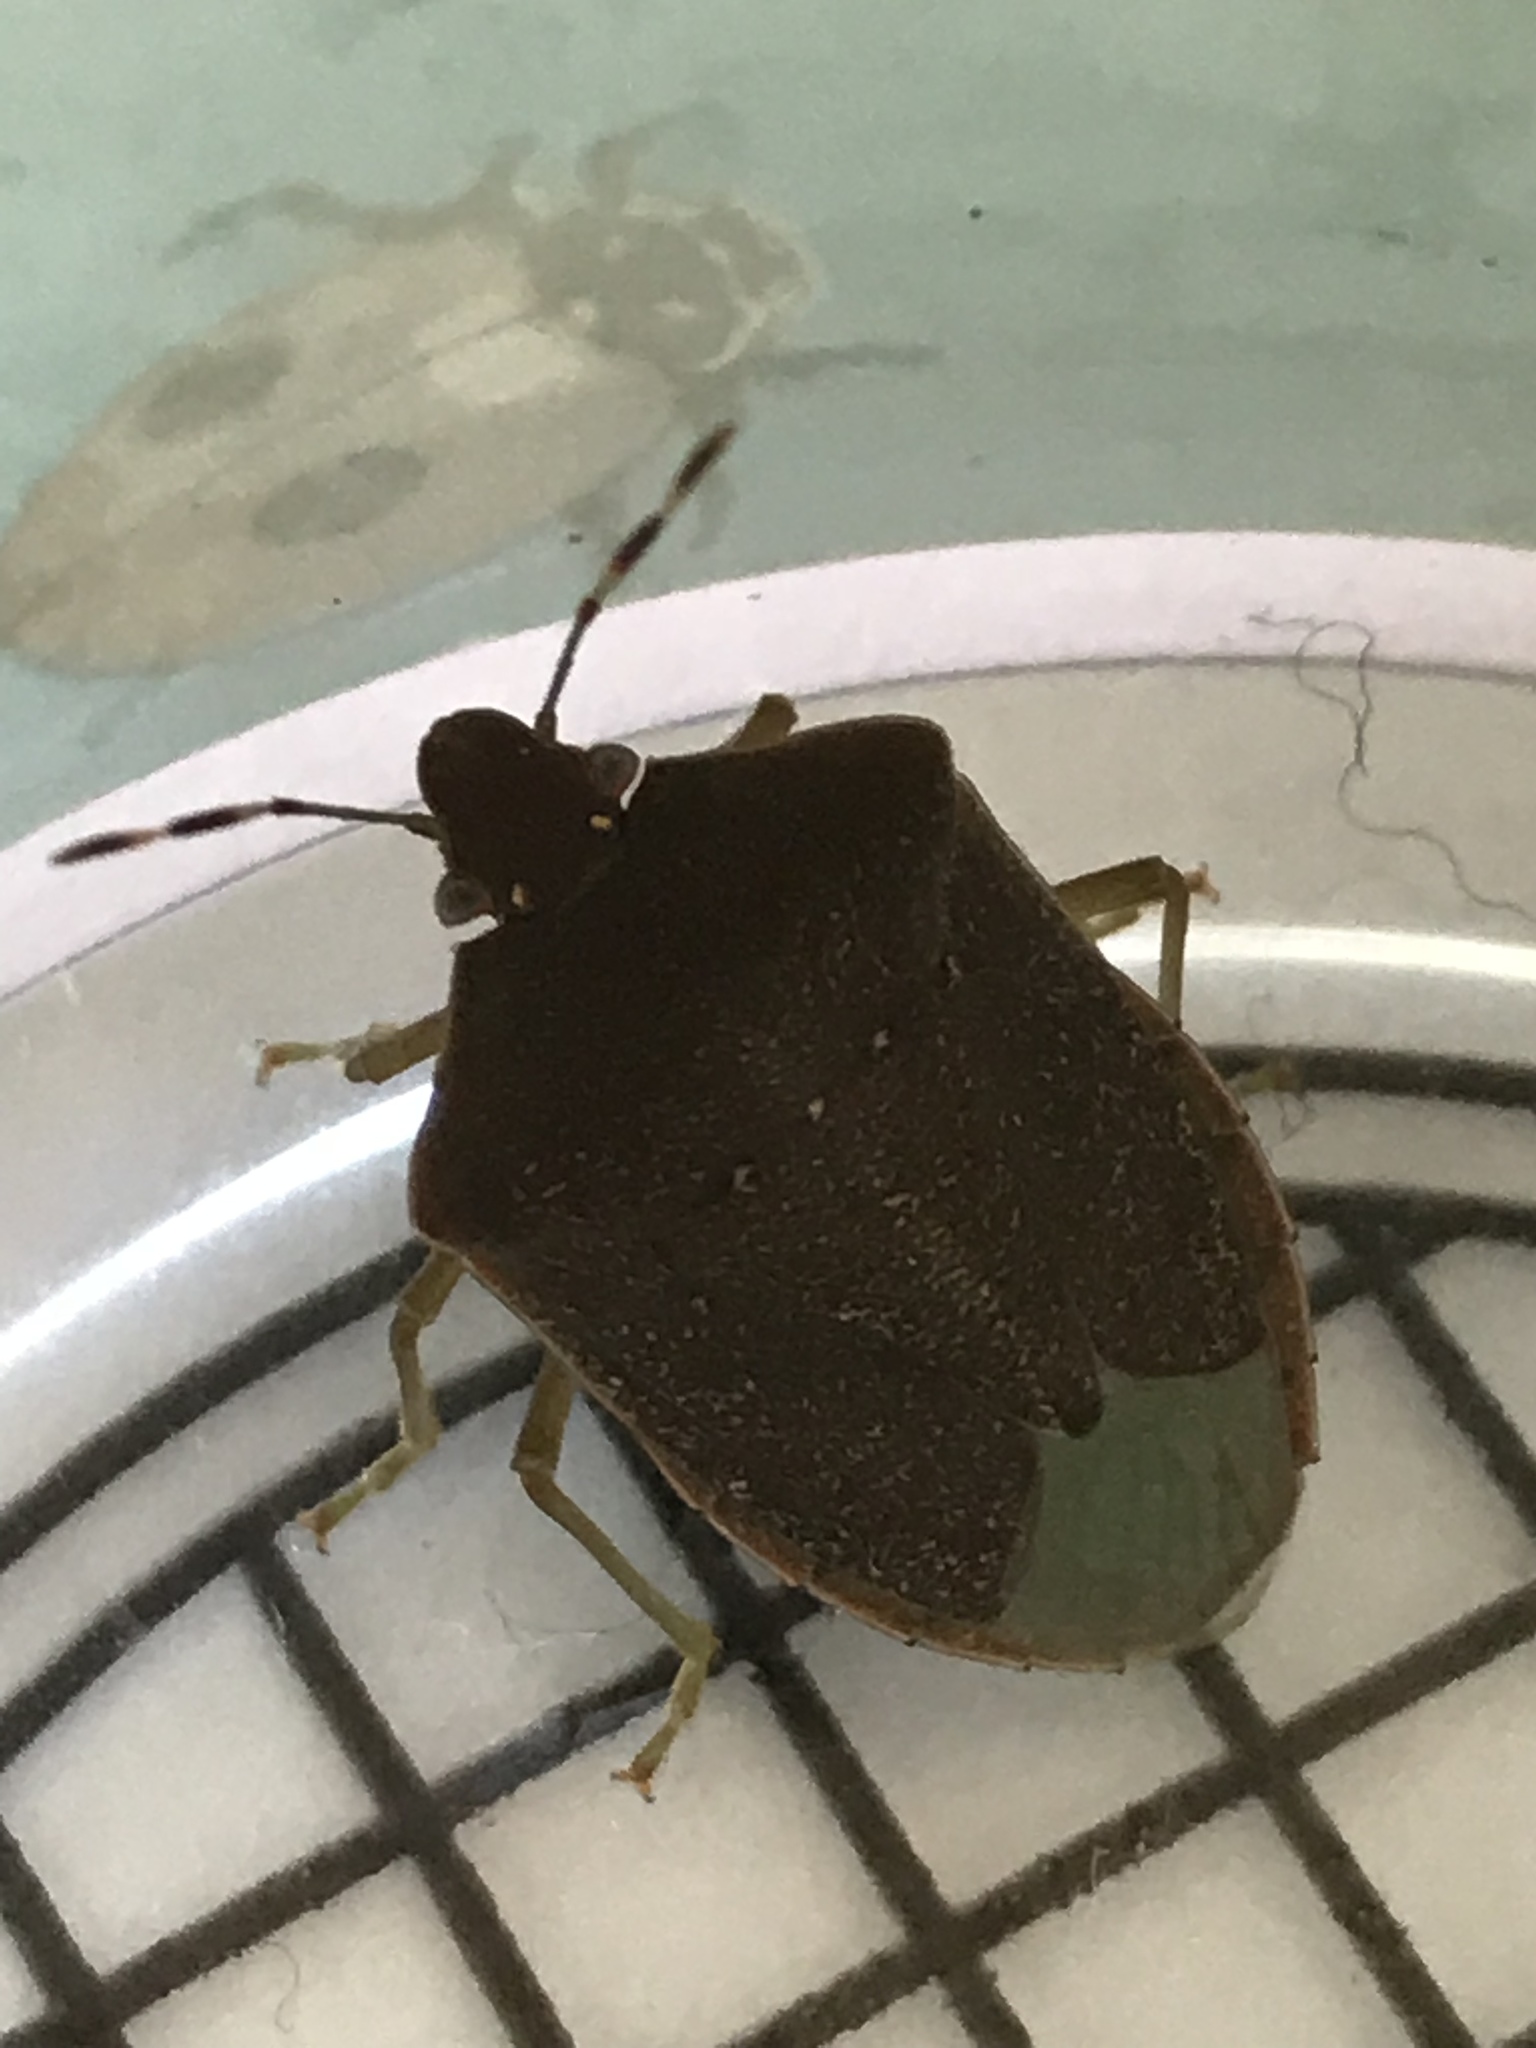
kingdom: Animalia
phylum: Arthropoda
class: Insecta
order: Hemiptera
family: Pentatomidae
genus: Nezara
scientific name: Nezara viridula
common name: Southern green stink bug
